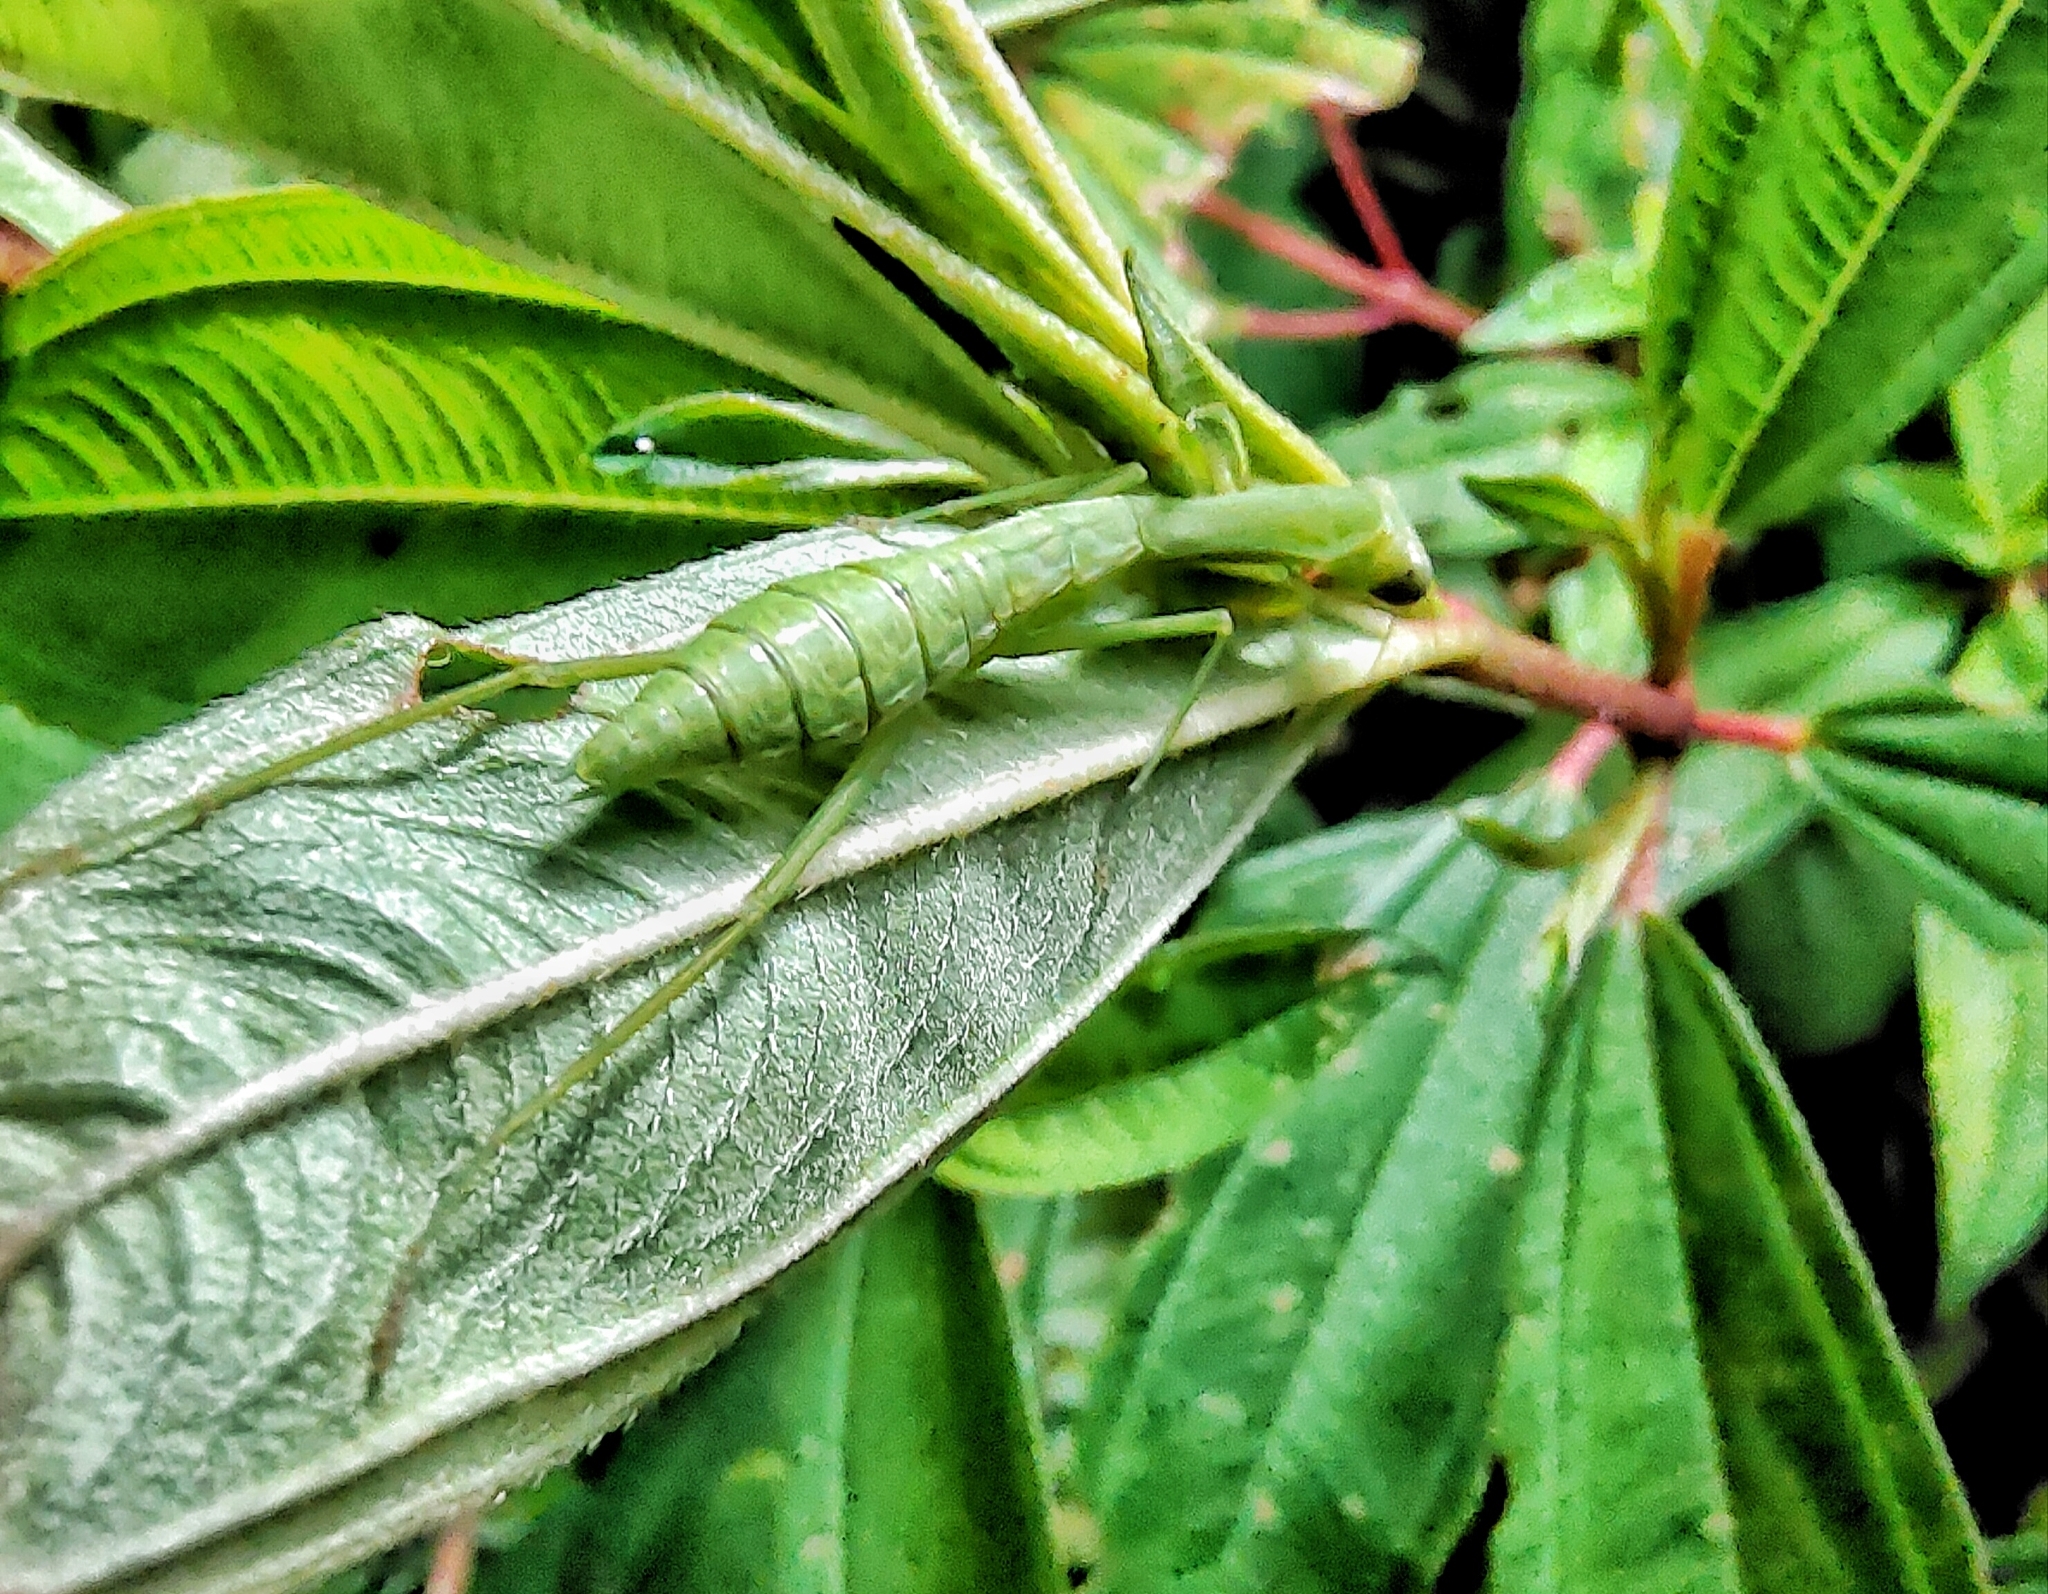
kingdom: Animalia
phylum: Arthropoda
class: Insecta
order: Mantodea
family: Mantidae
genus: Hierodula
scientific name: Hierodula venosa
